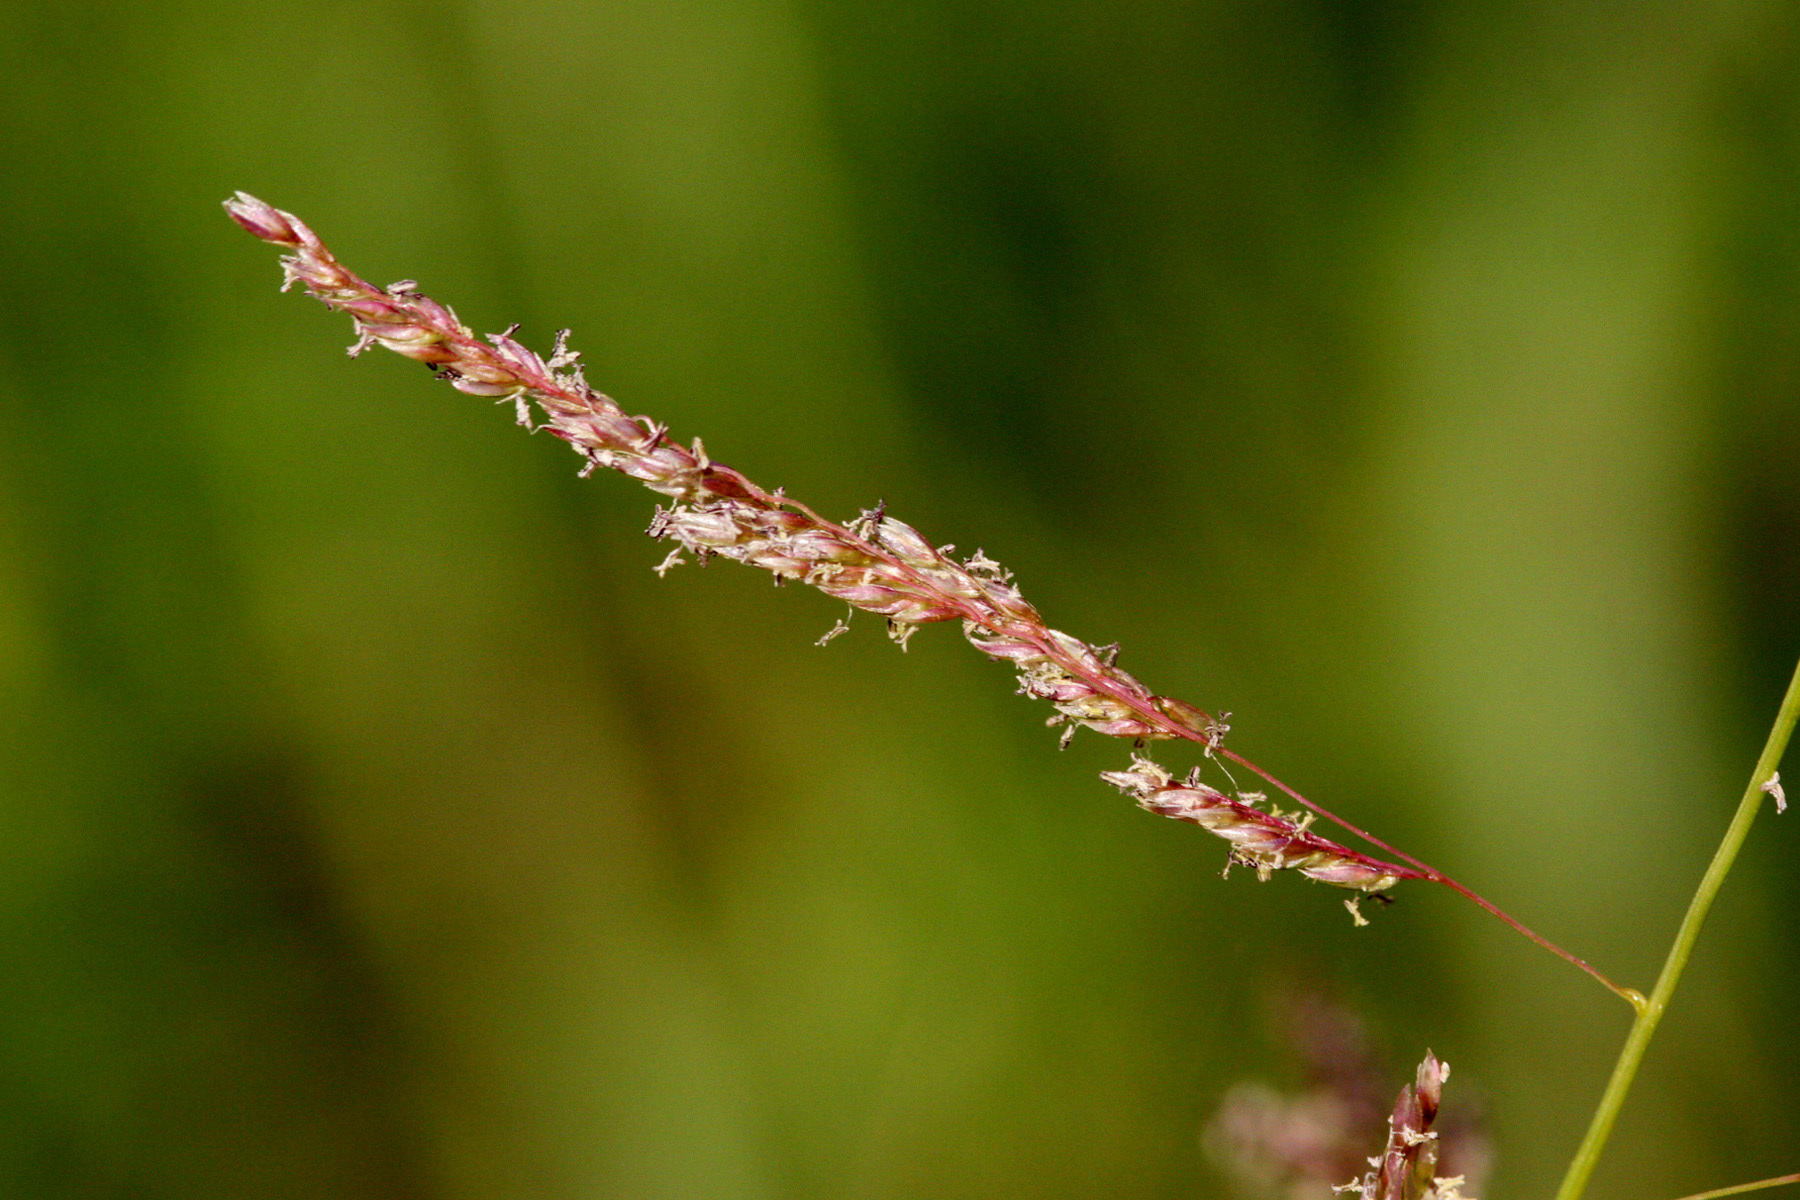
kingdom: Plantae
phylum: Tracheophyta
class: Liliopsida
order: Poales
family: Poaceae
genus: Sporobolus
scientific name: Sporobolus cryptandrus
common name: Sand dropseed
